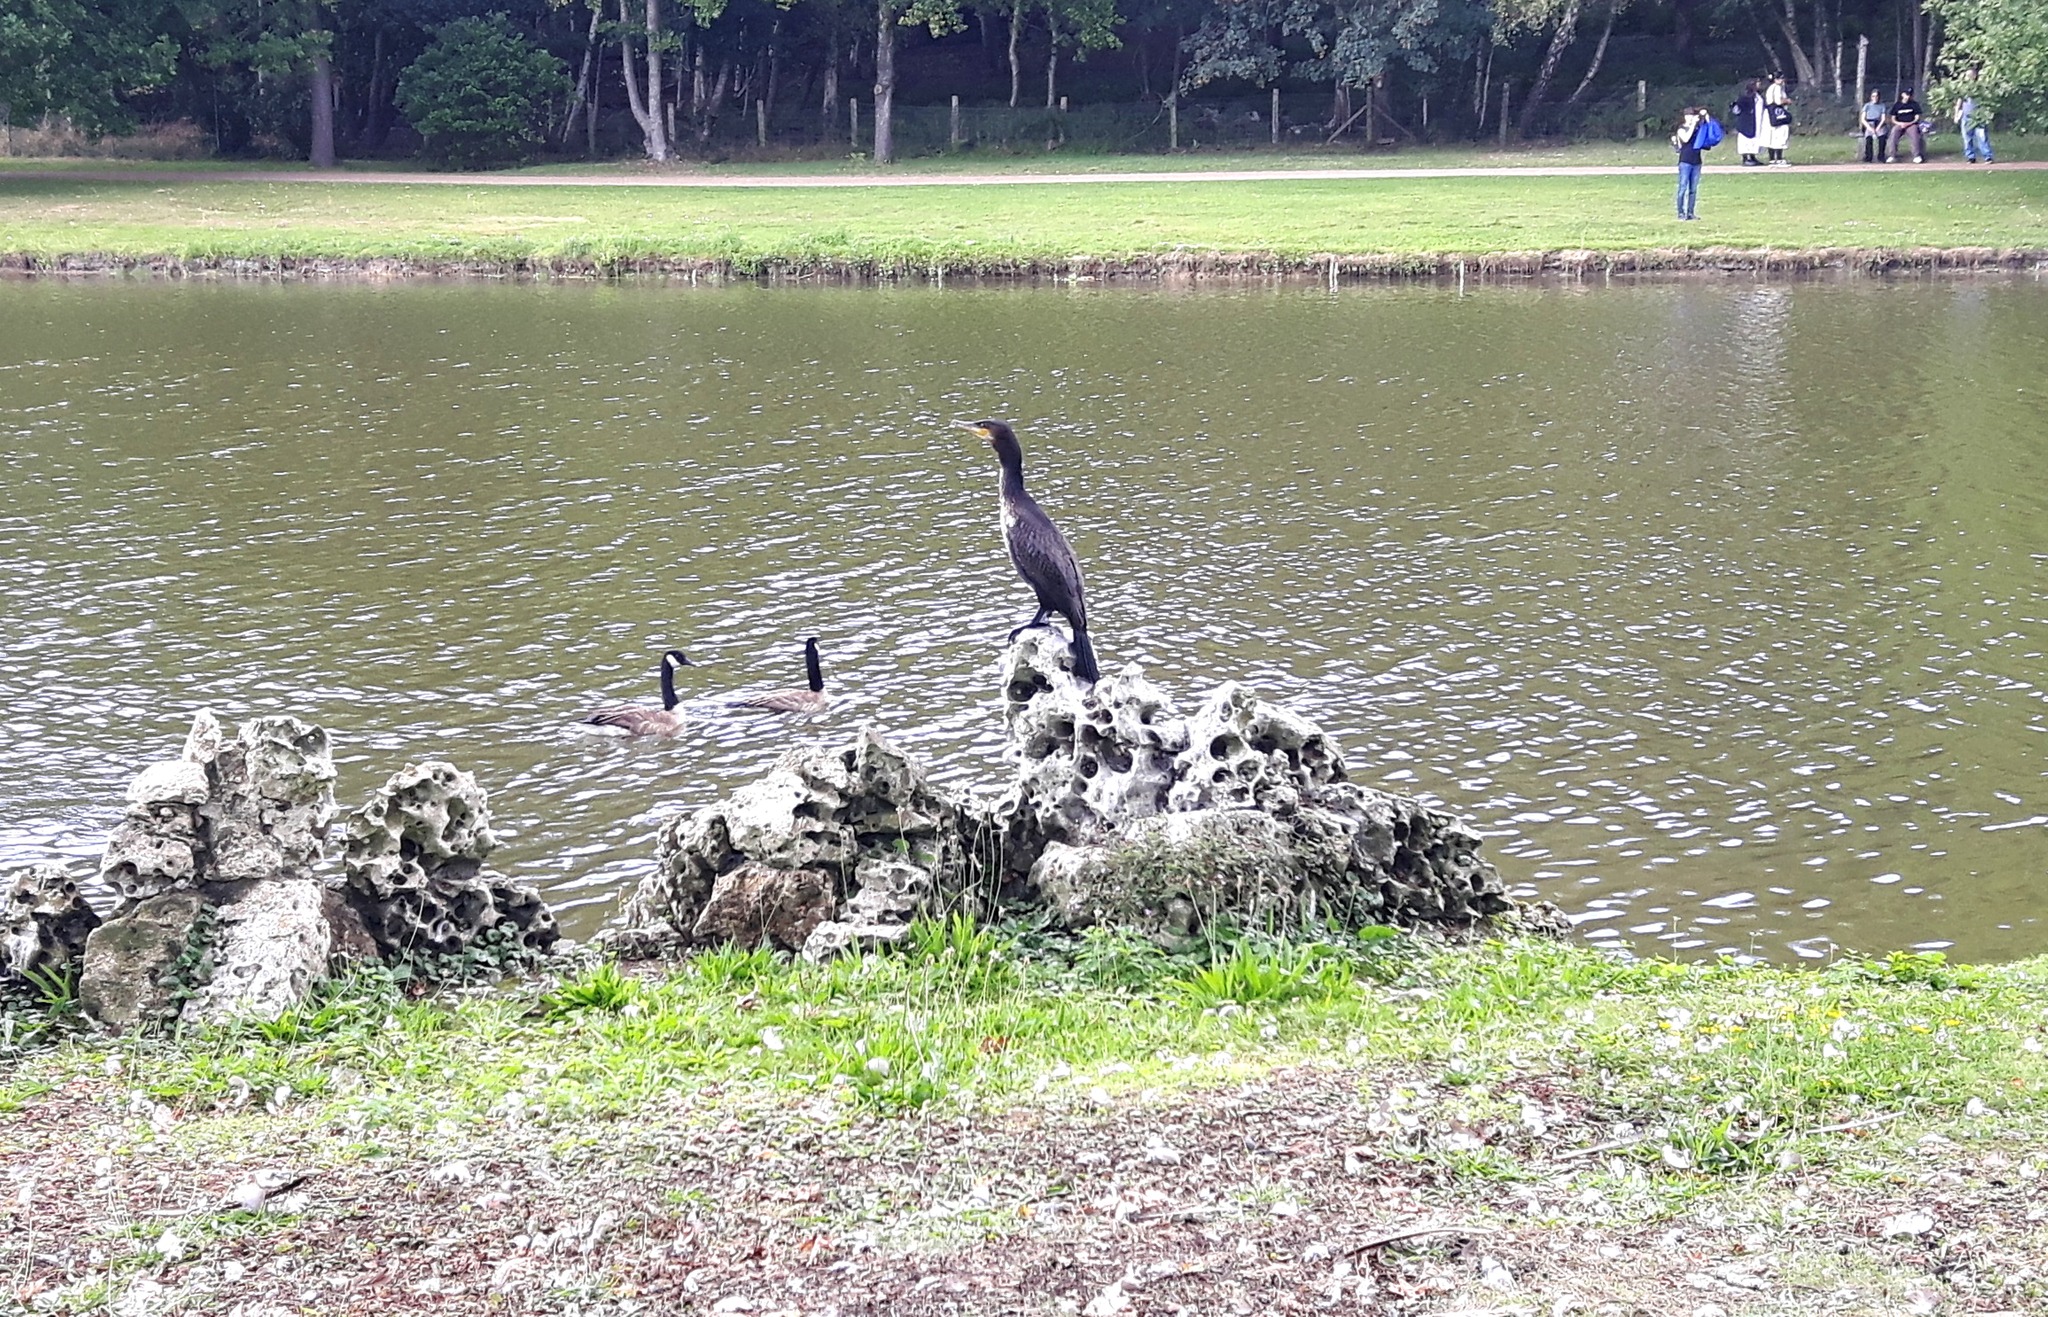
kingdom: Animalia
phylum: Chordata
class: Aves
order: Suliformes
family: Phalacrocoracidae
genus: Phalacrocorax
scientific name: Phalacrocorax carbo
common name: Great cormorant
